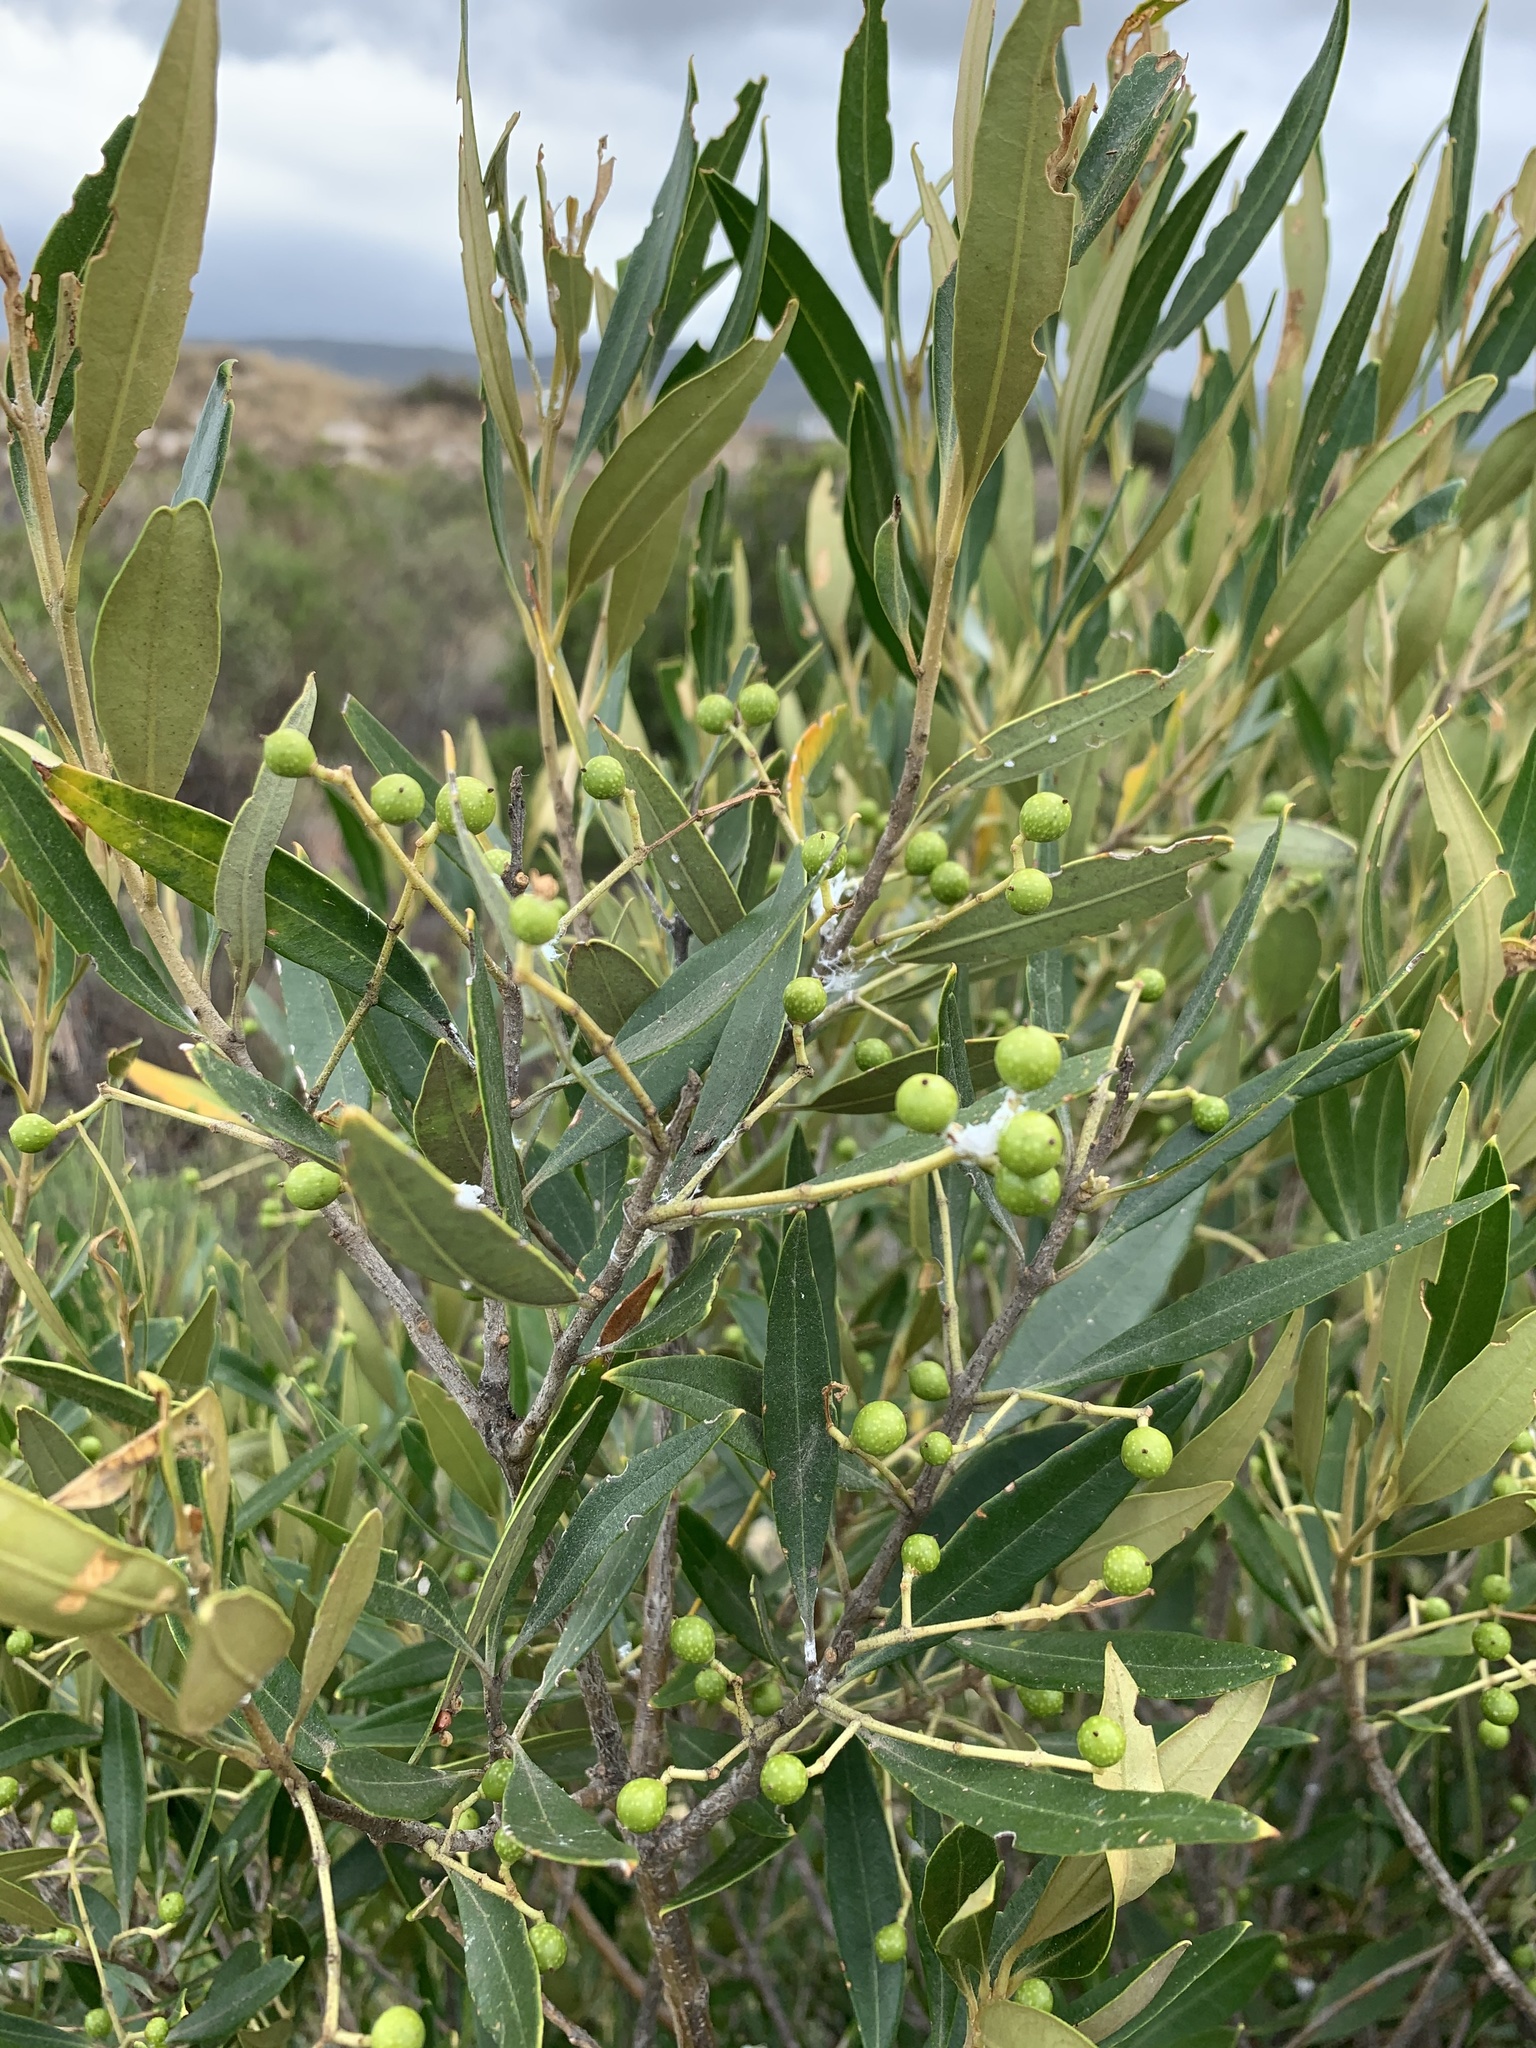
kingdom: Plantae
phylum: Tracheophyta
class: Magnoliopsida
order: Lamiales
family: Oleaceae
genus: Olea
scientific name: Olea europaea
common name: Olive
